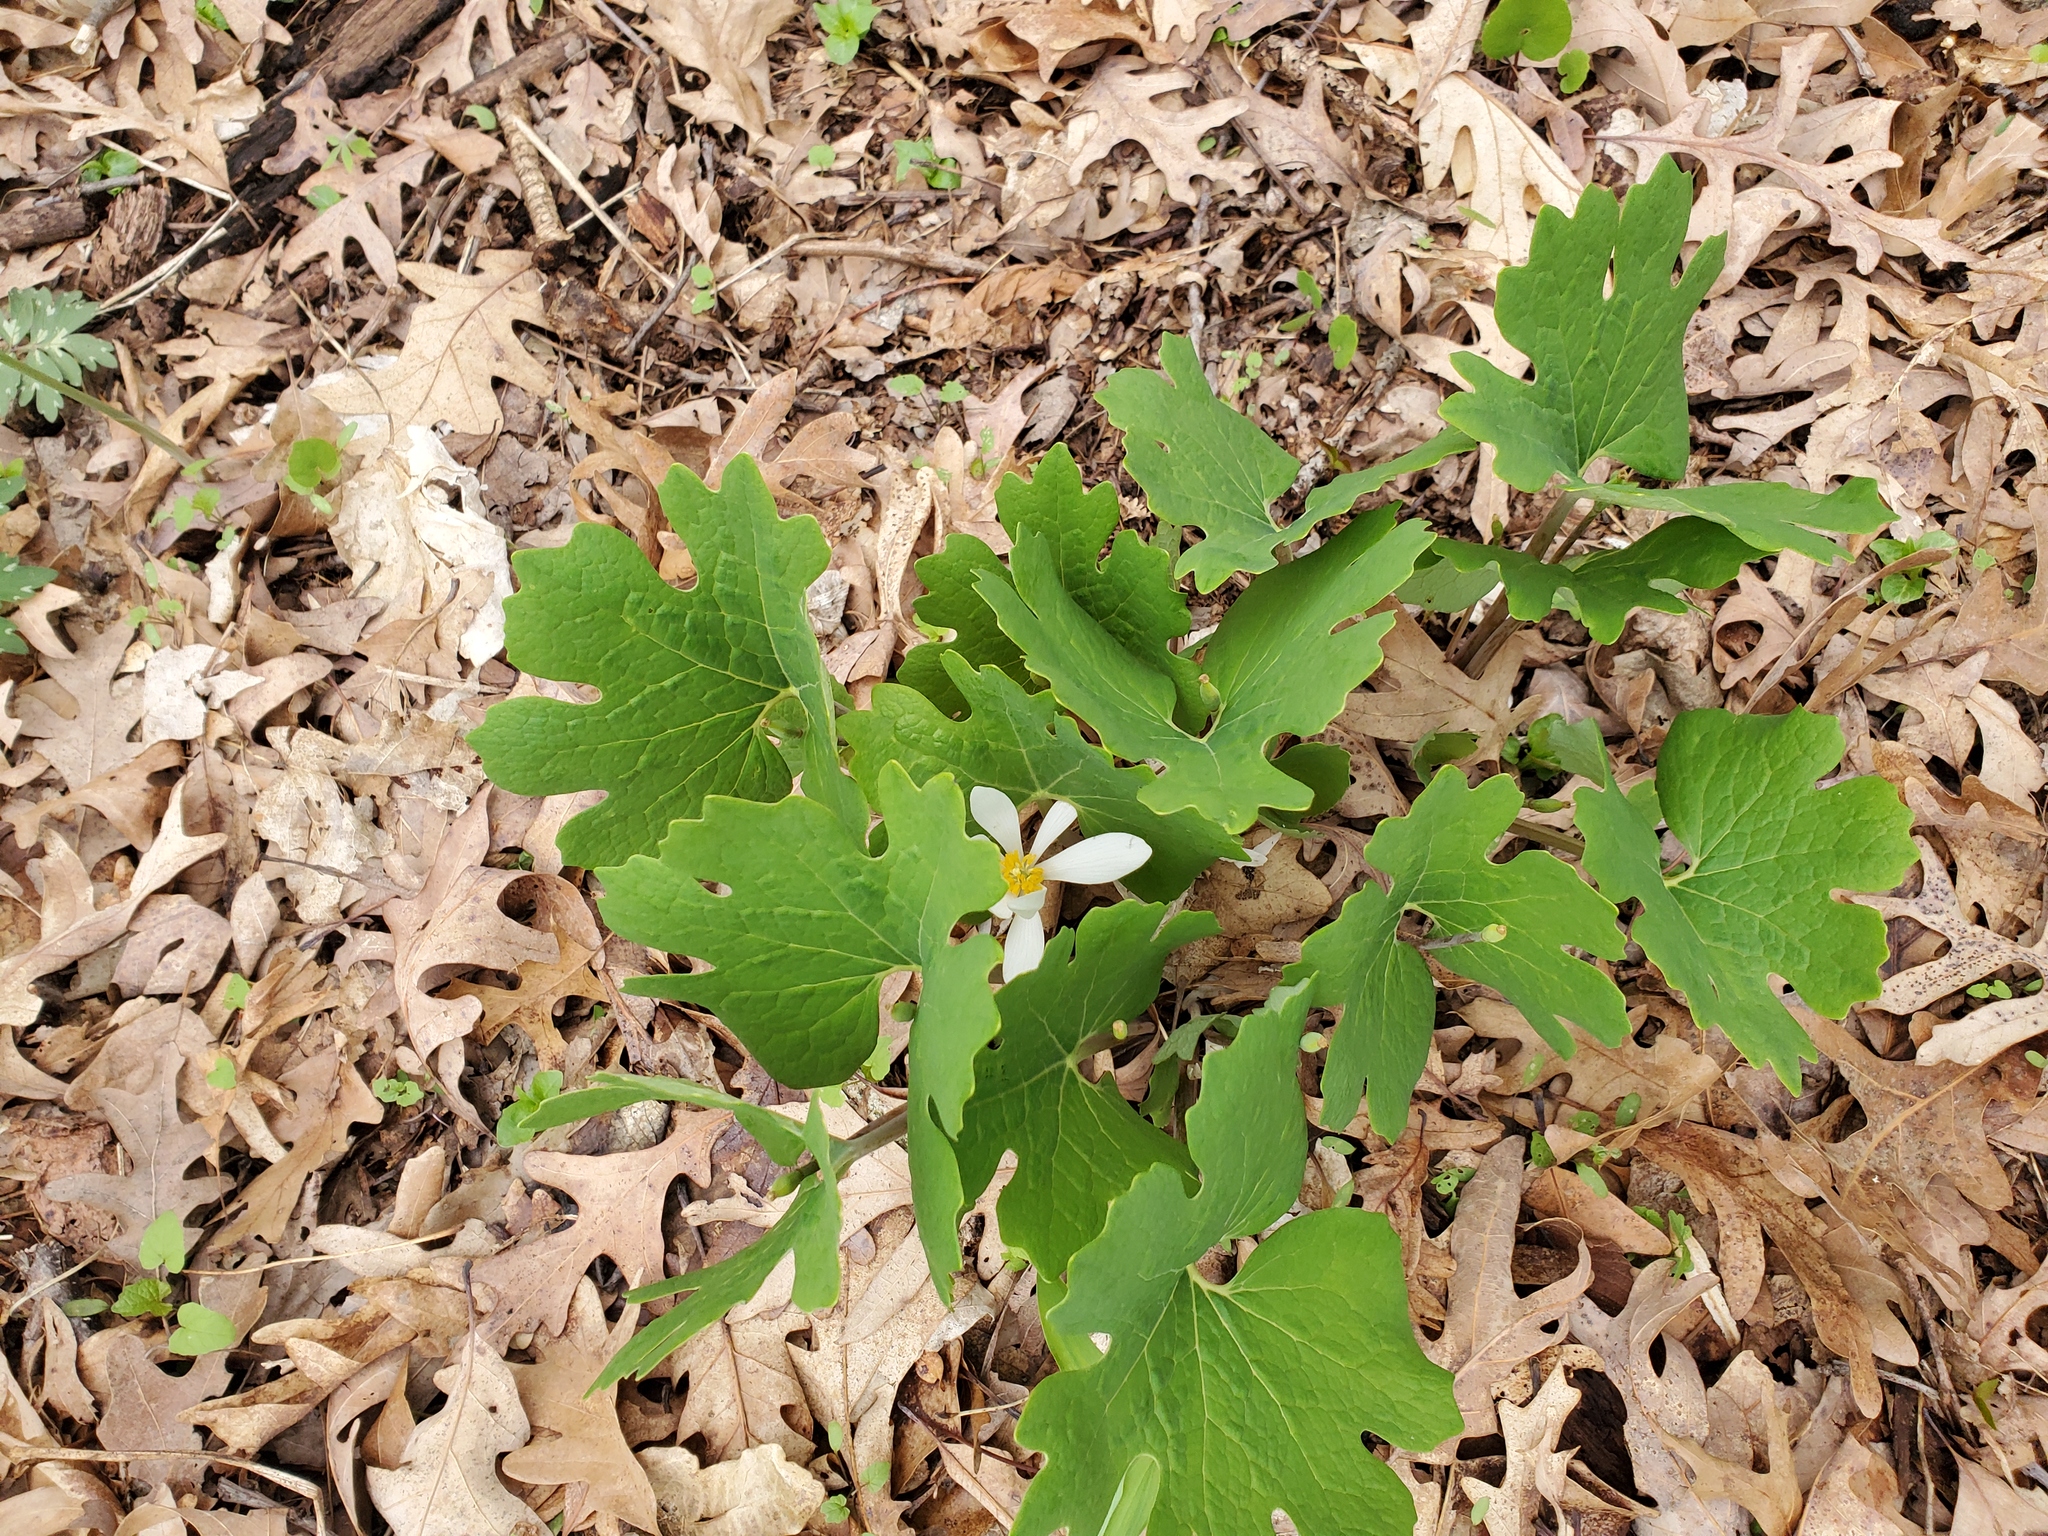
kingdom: Plantae
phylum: Tracheophyta
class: Magnoliopsida
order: Ranunculales
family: Papaveraceae
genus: Sanguinaria
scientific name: Sanguinaria canadensis
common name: Bloodroot
